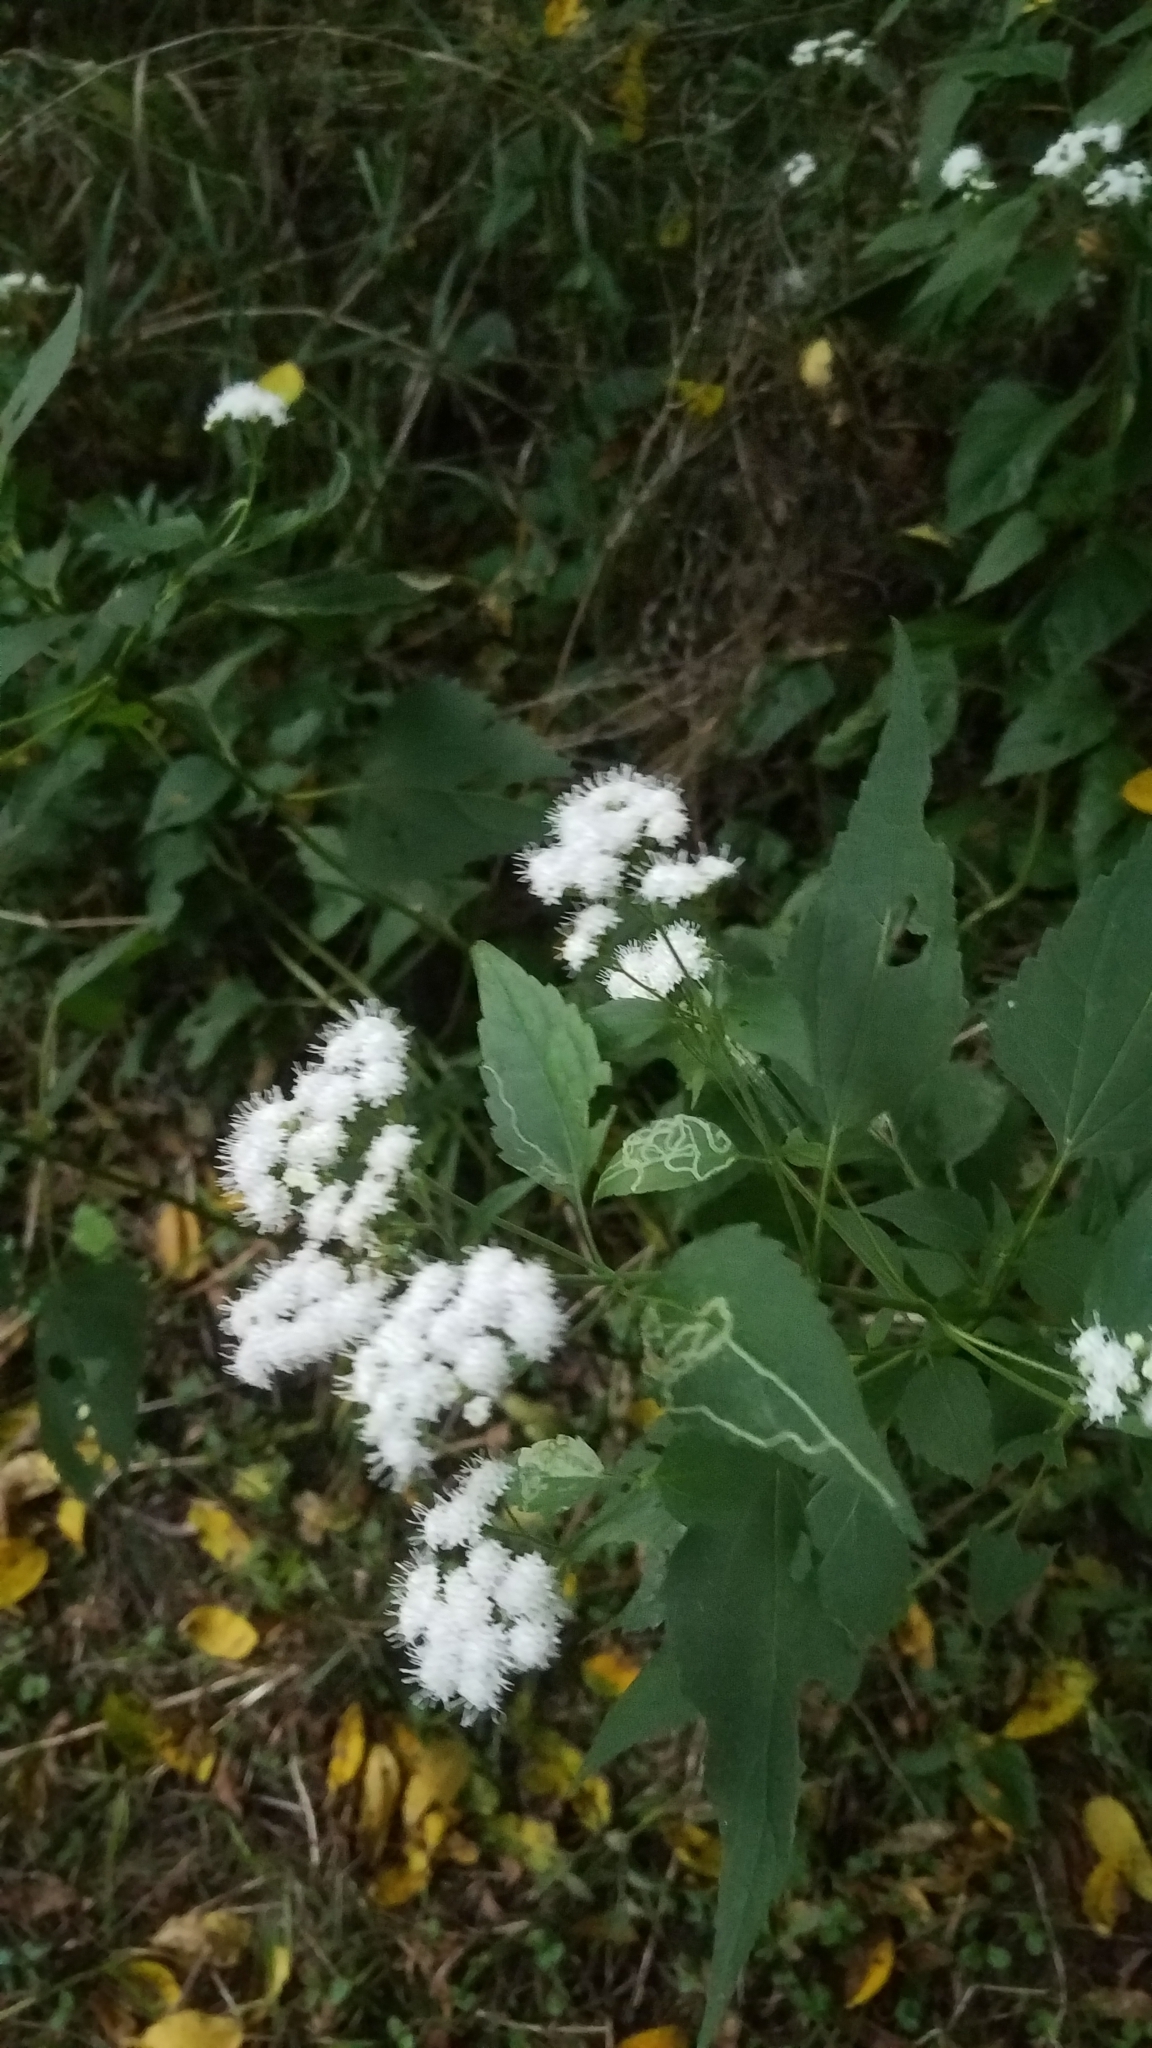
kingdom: Plantae
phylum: Tracheophyta
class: Magnoliopsida
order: Asterales
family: Asteraceae
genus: Ageratina
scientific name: Ageratina altissima
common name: White snakeroot
